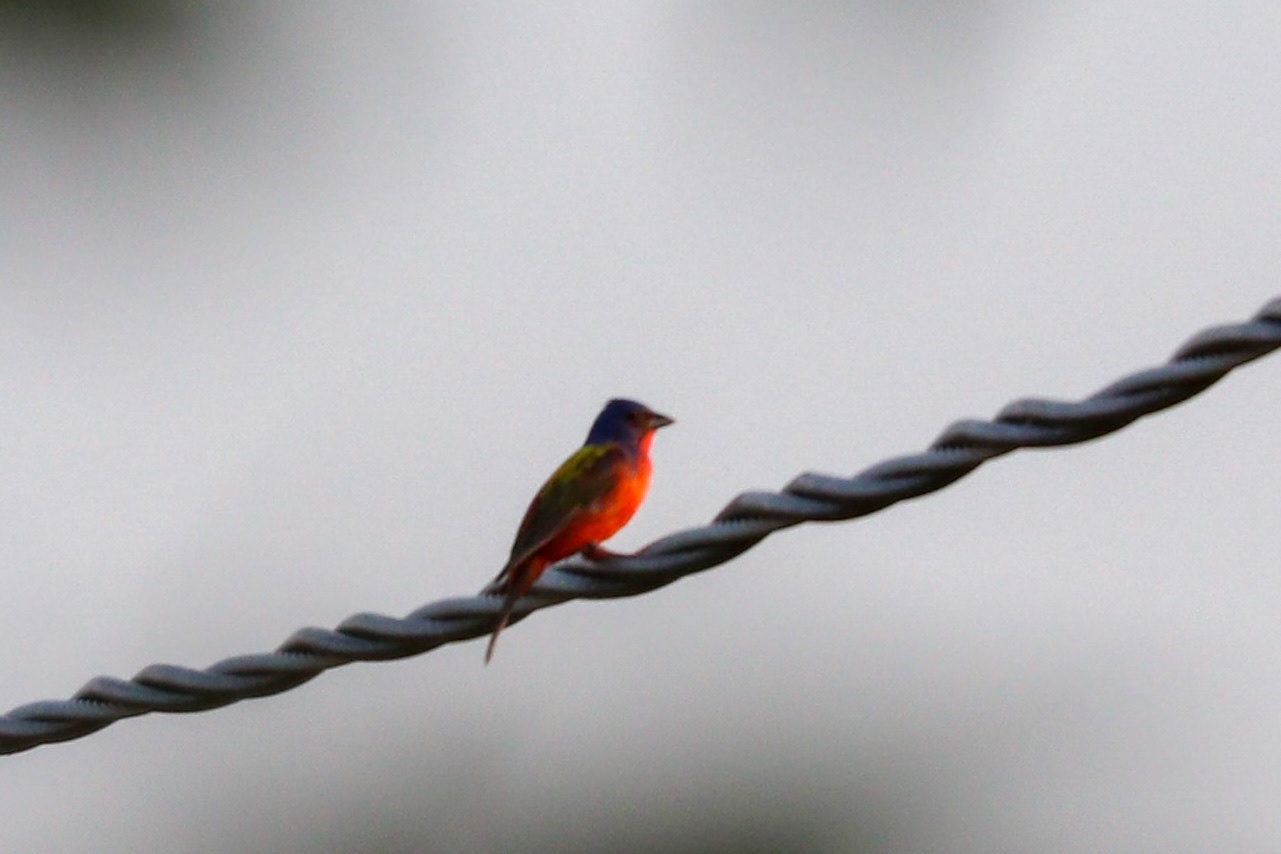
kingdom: Animalia
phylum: Chordata
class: Aves
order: Passeriformes
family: Cardinalidae
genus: Passerina
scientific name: Passerina ciris
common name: Painted bunting
